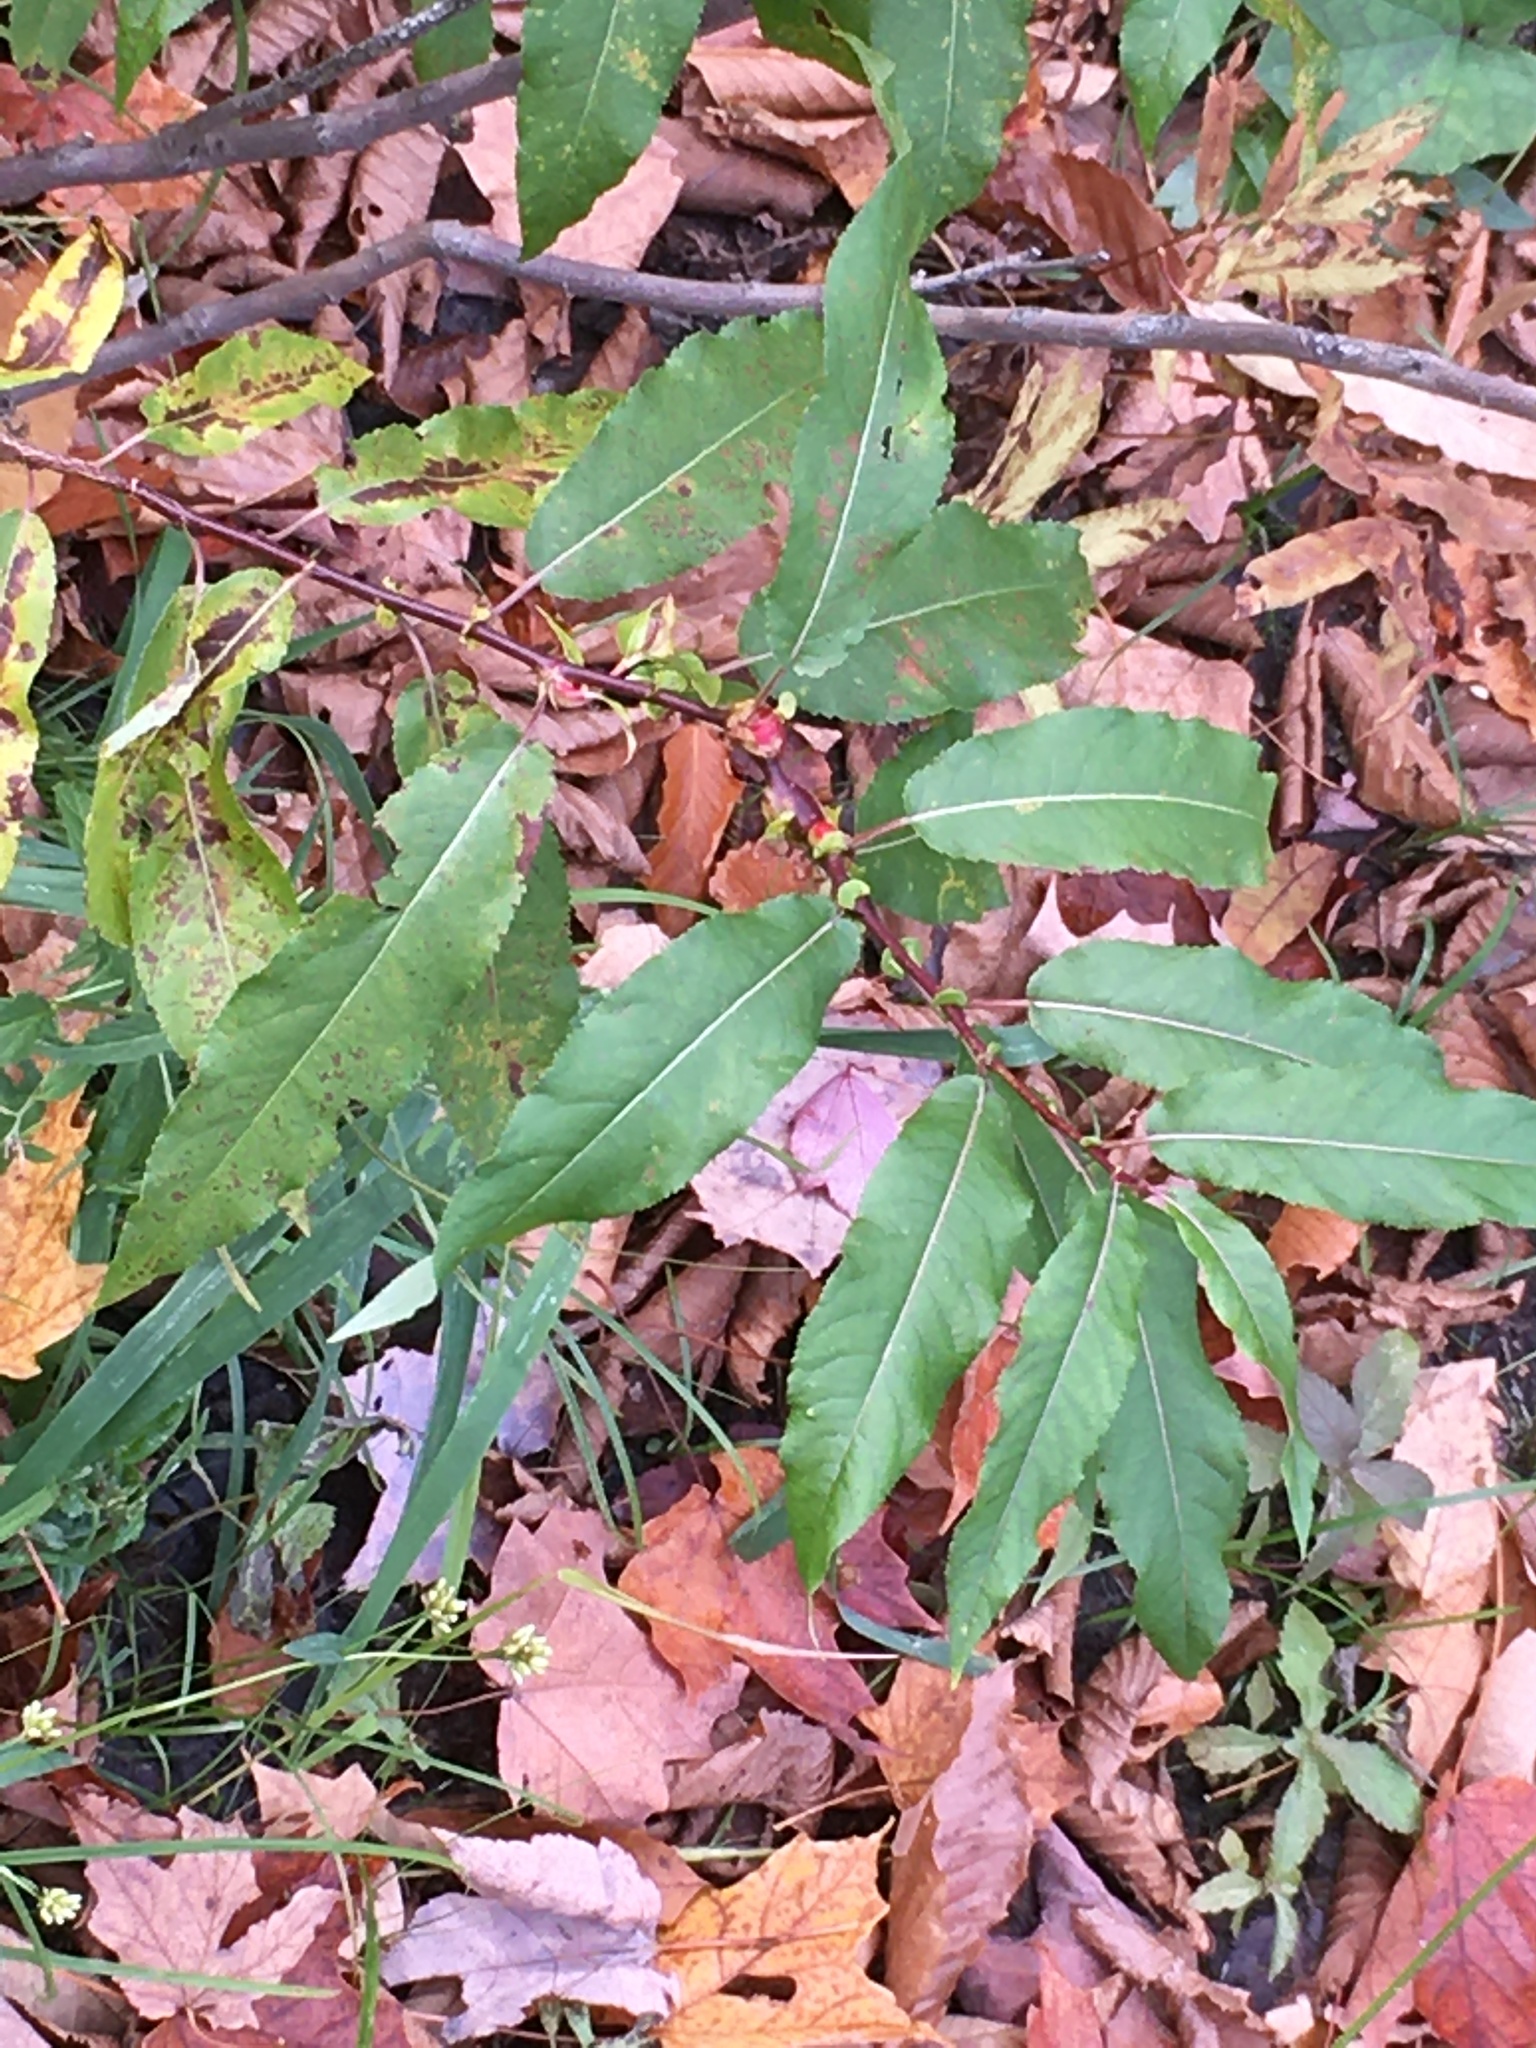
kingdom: Plantae
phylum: Tracheophyta
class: Magnoliopsida
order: Malpighiales
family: Salicaceae
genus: Salix
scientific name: Salix eriocephala
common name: Heart-leaved willow
